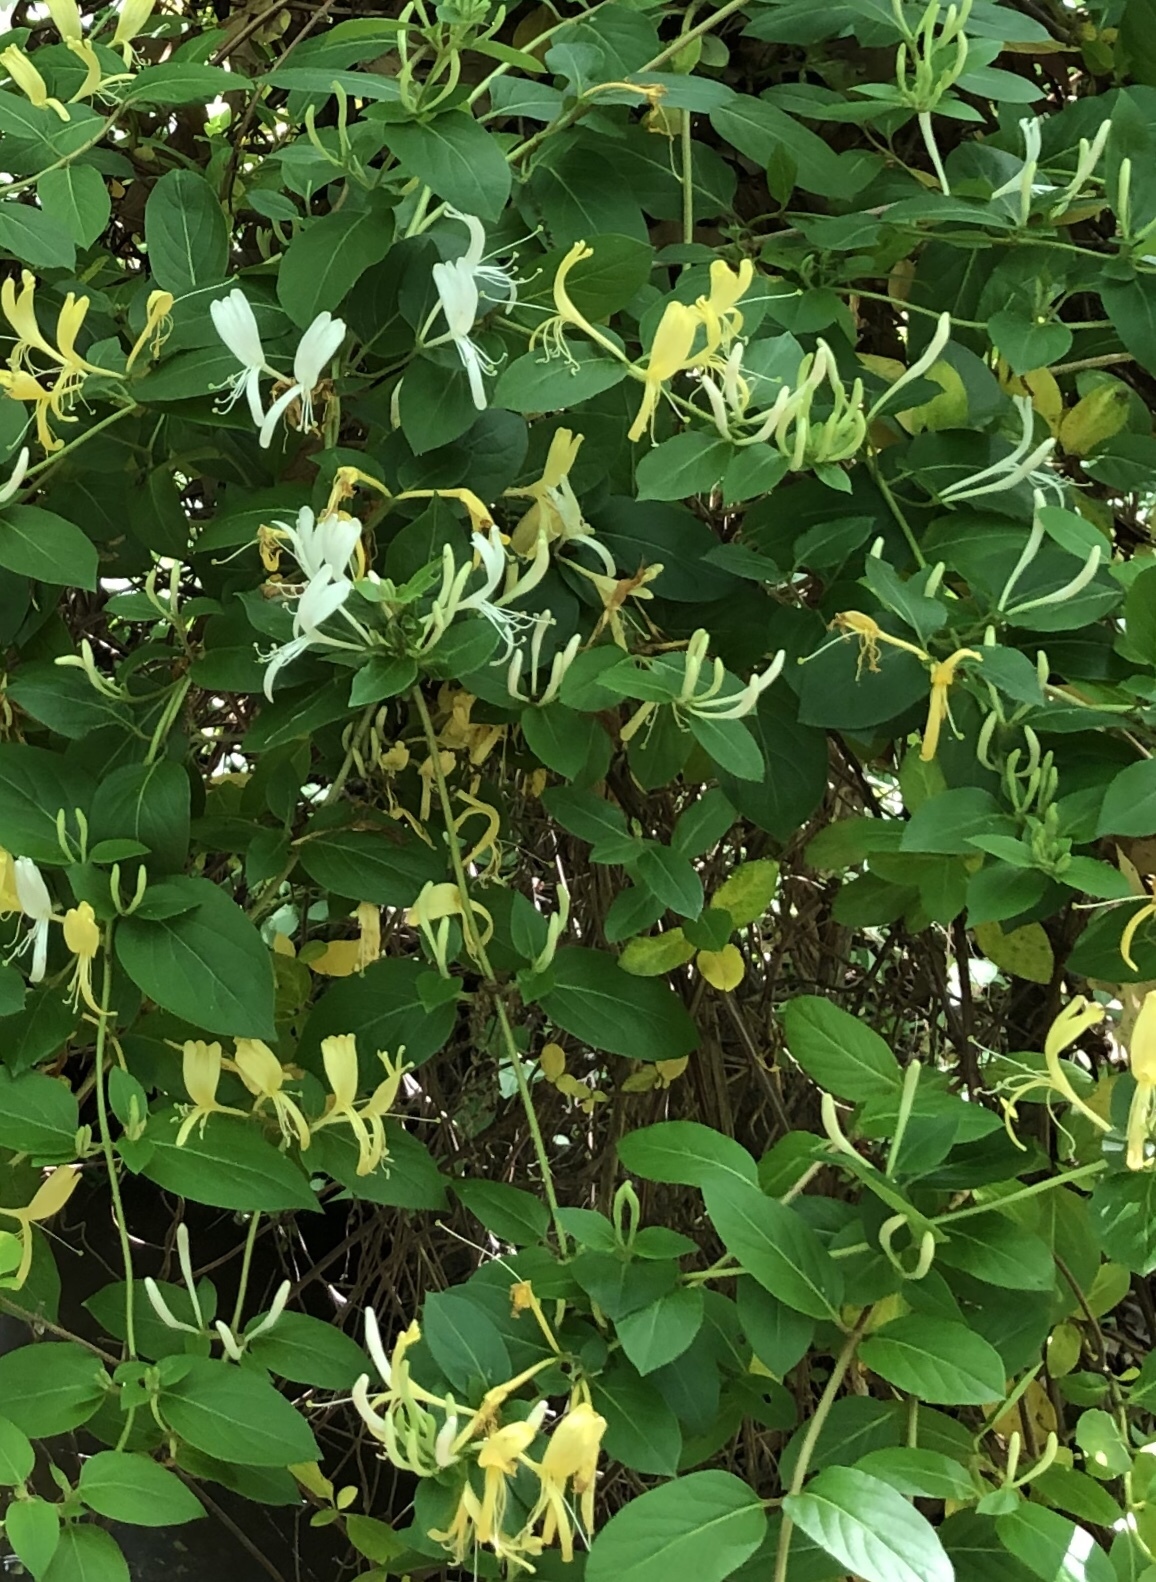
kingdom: Plantae
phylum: Tracheophyta
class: Magnoliopsida
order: Dipsacales
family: Caprifoliaceae
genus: Lonicera
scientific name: Lonicera japonica
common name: Japanese honeysuckle
